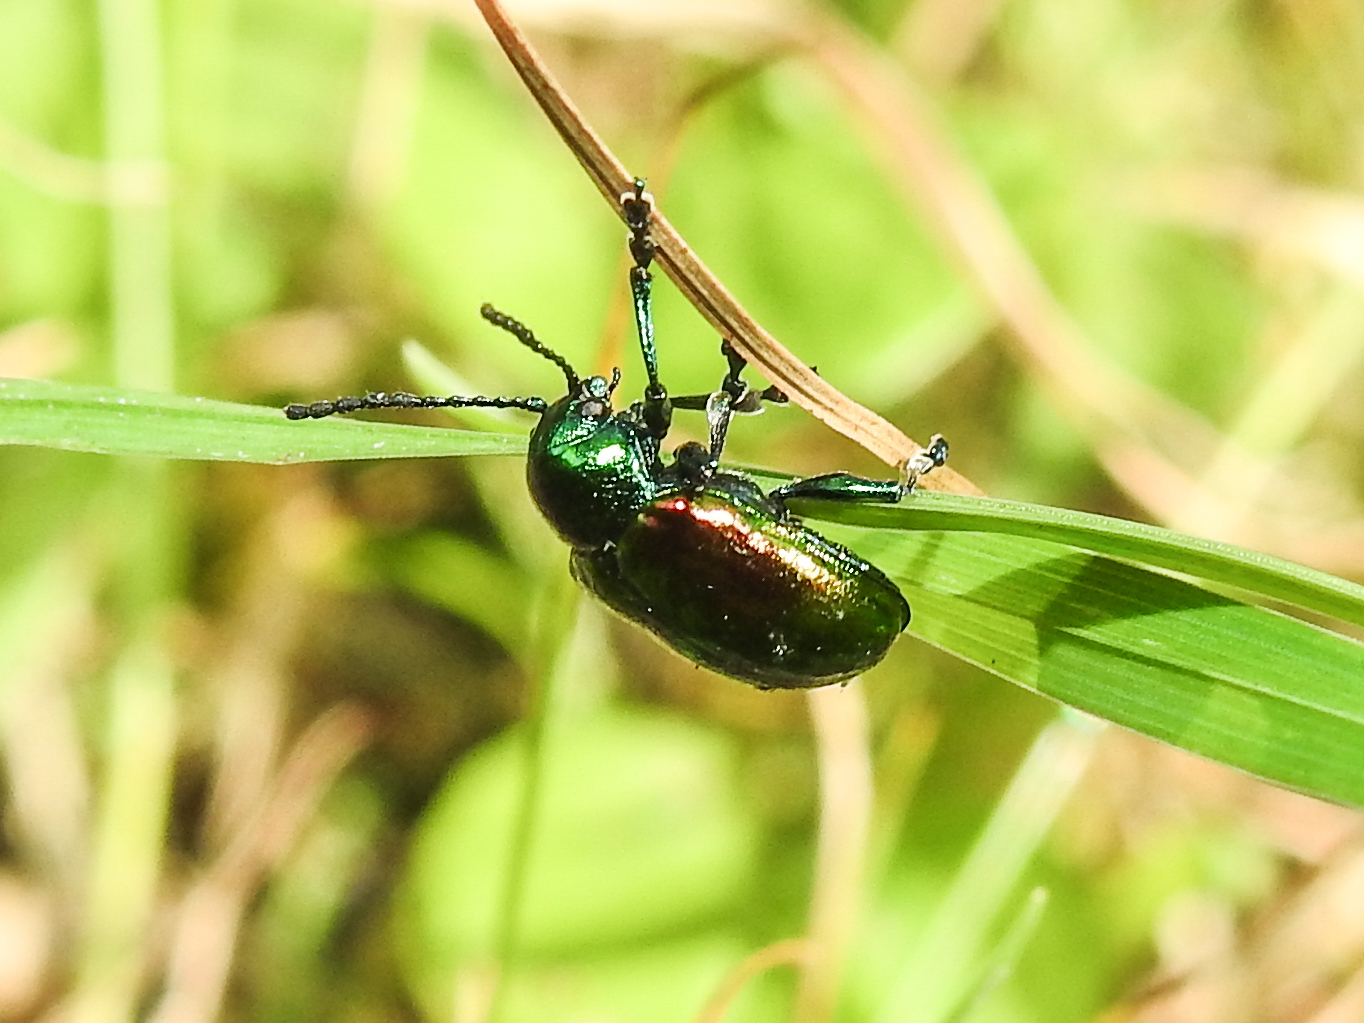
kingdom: Animalia
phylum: Arthropoda
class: Insecta
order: Coleoptera
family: Chrysomelidae
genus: Chrysochus
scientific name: Chrysochus auratus
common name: Dogbane leaf beetle
